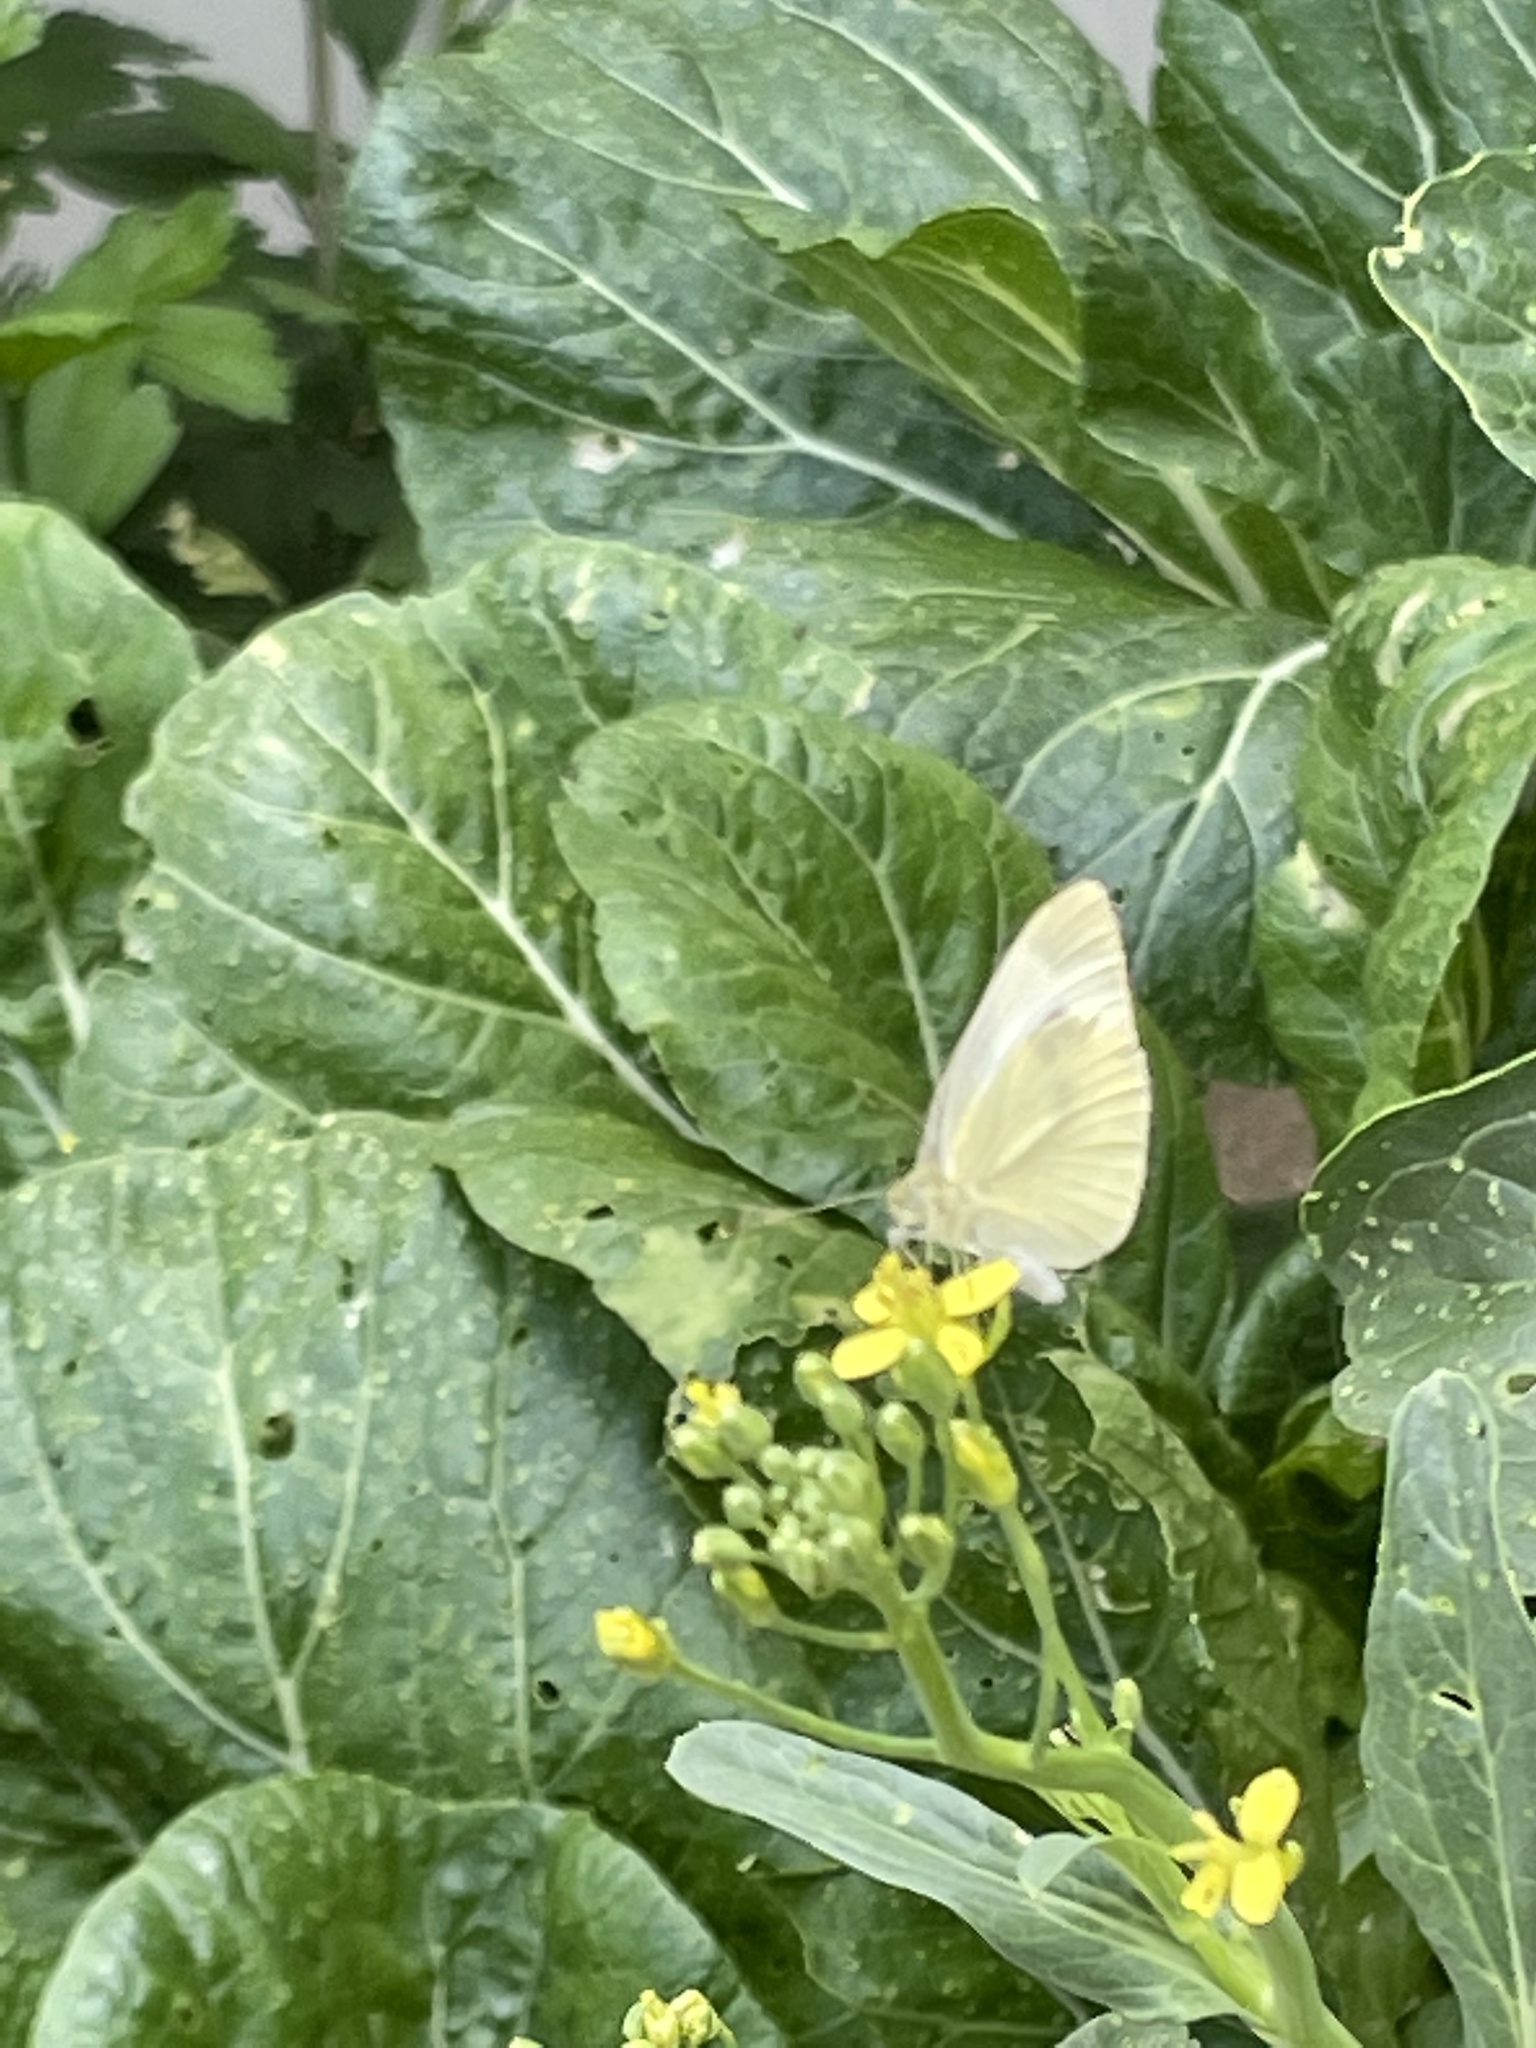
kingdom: Animalia
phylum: Arthropoda
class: Insecta
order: Lepidoptera
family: Pieridae
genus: Pieris
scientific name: Pieris rapae
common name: Small white
